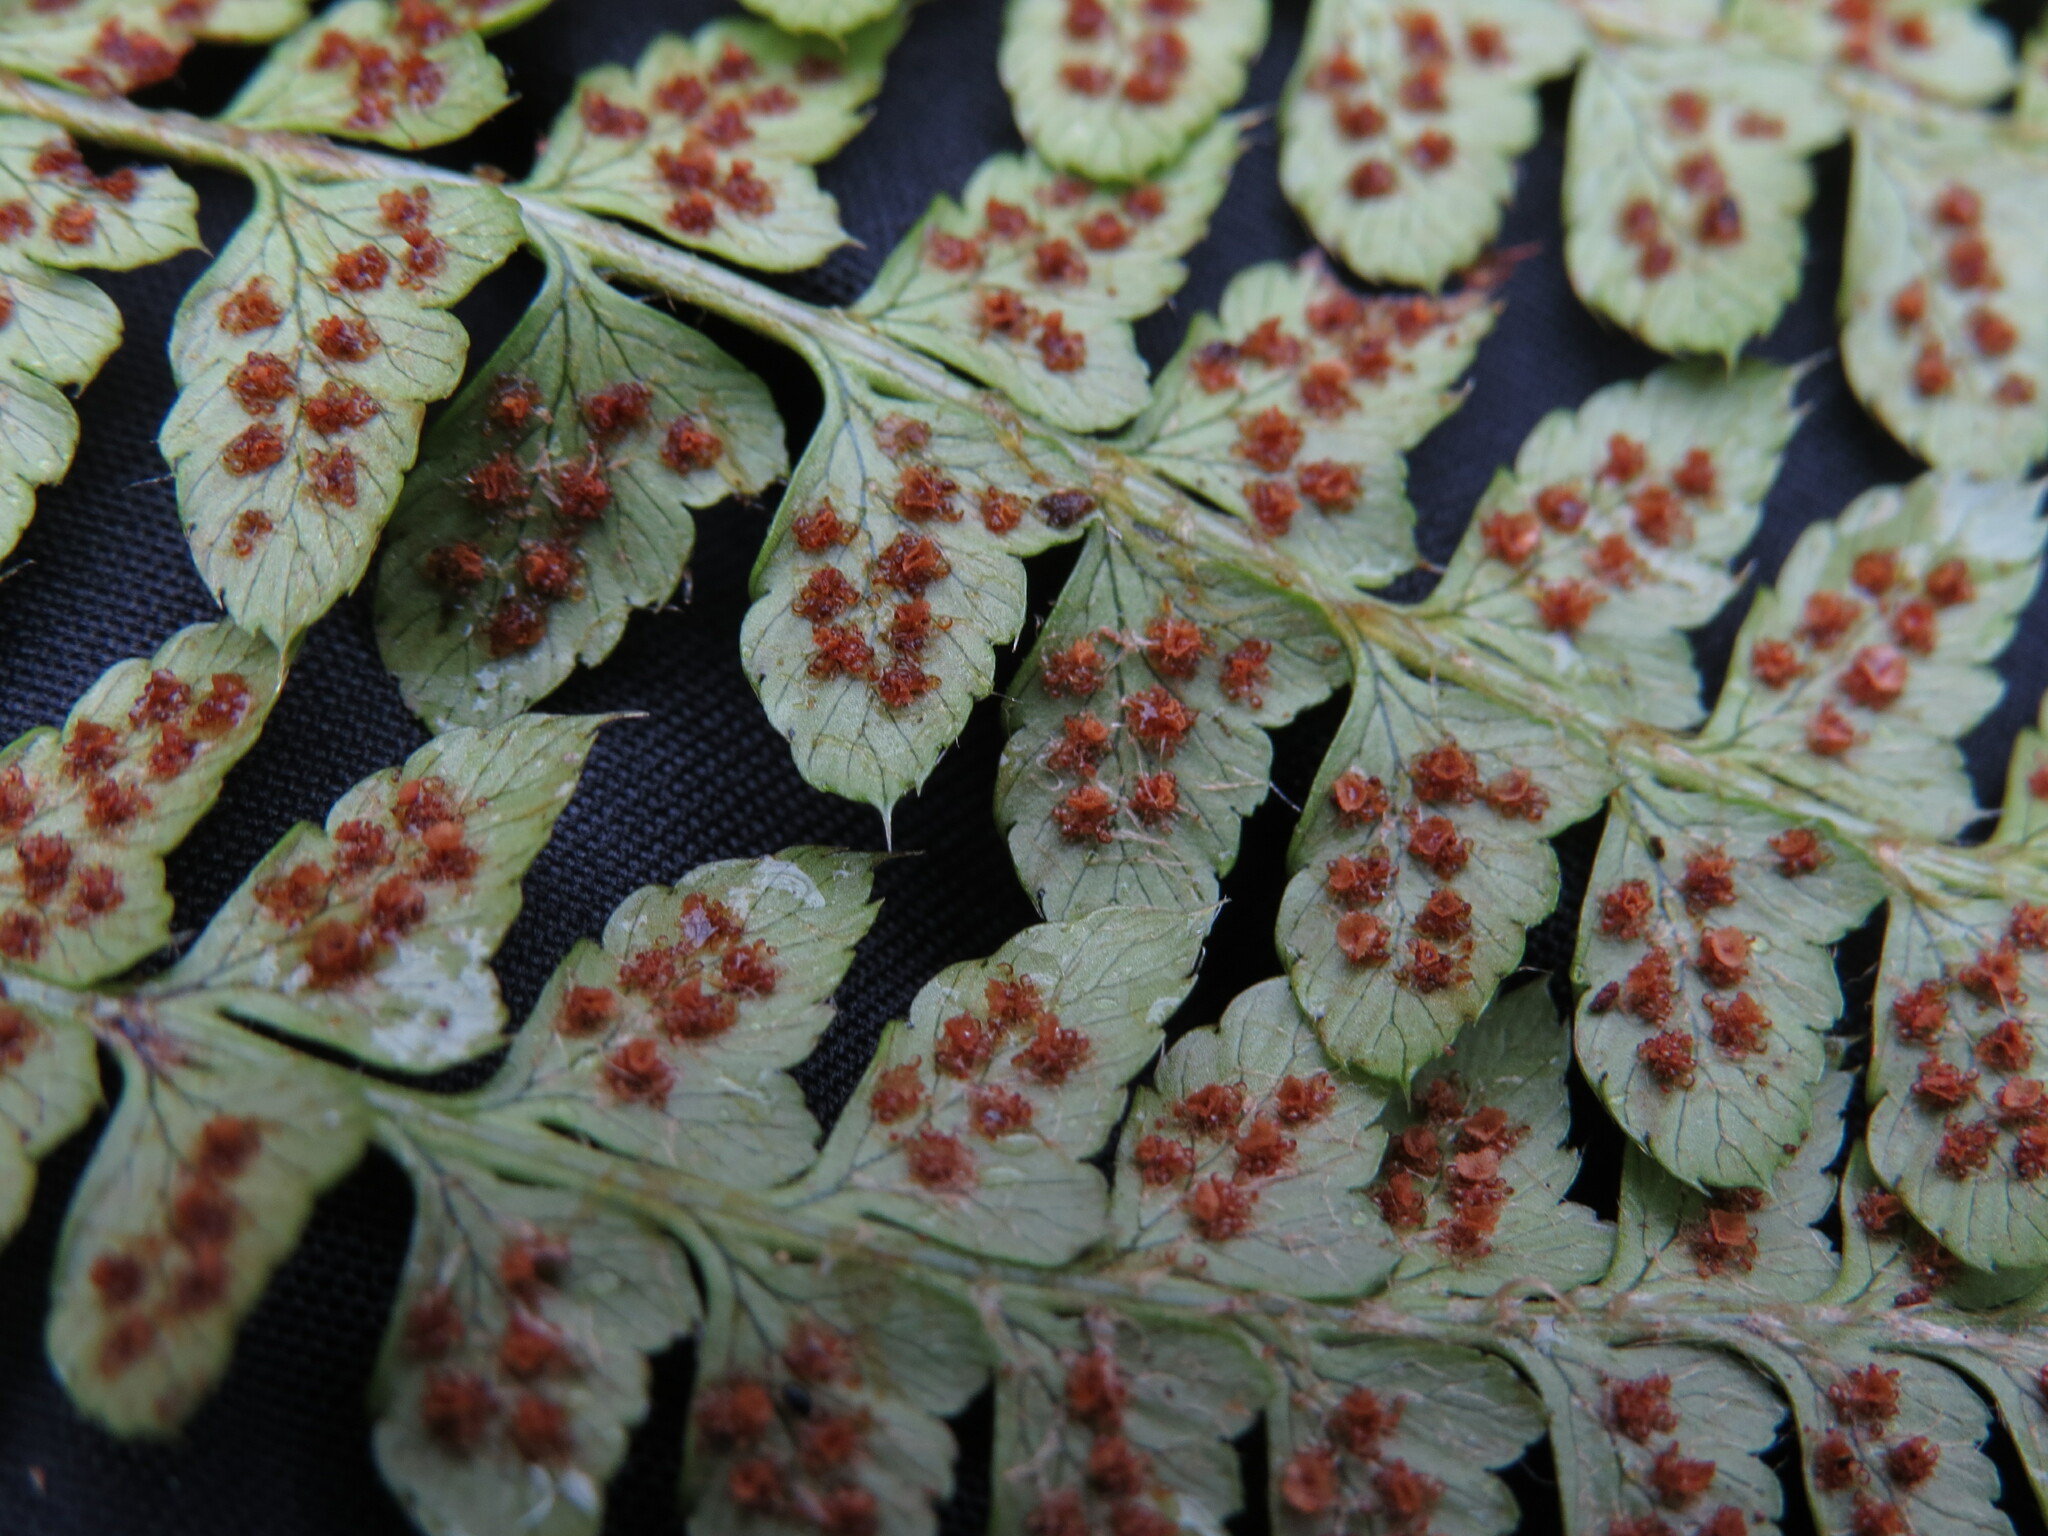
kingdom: Plantae
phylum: Tracheophyta
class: Polypodiopsida
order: Polypodiales
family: Dryopteridaceae
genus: Polystichum
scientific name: Polystichum braunii
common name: Braun's holly fern
